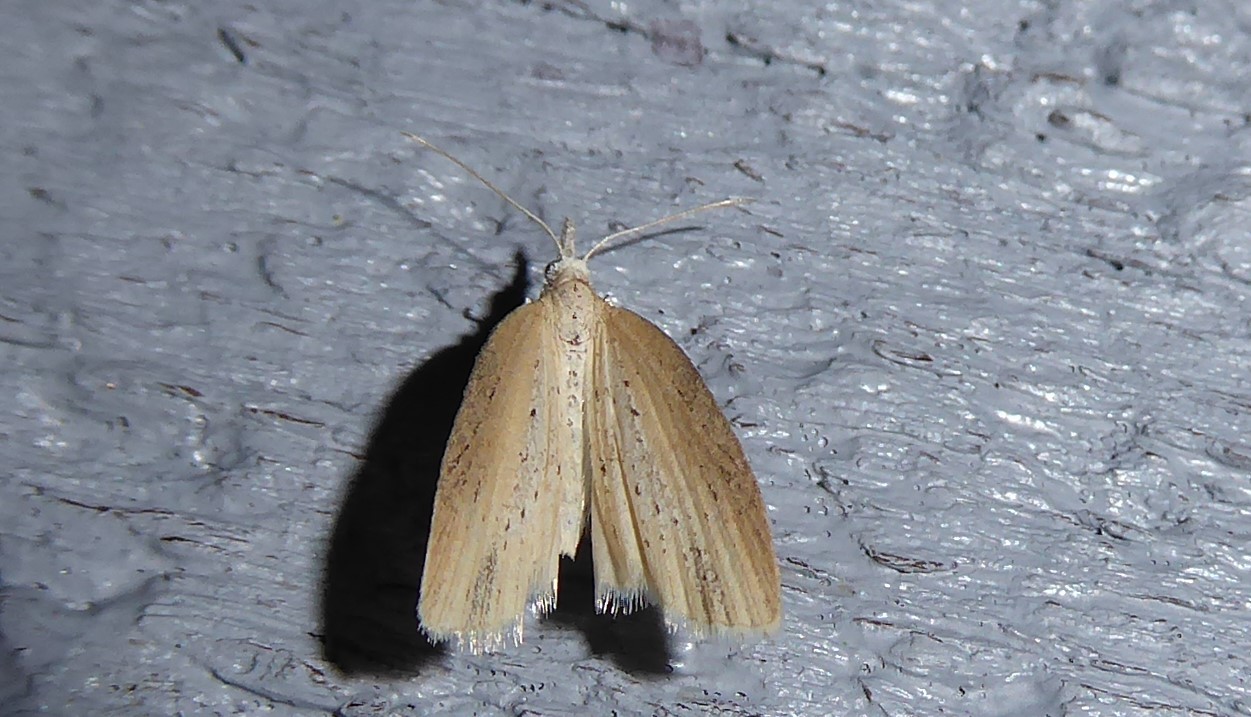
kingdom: Animalia
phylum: Arthropoda
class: Insecta
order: Lepidoptera
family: Geometridae
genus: Microdes
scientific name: Microdes epicryptis
